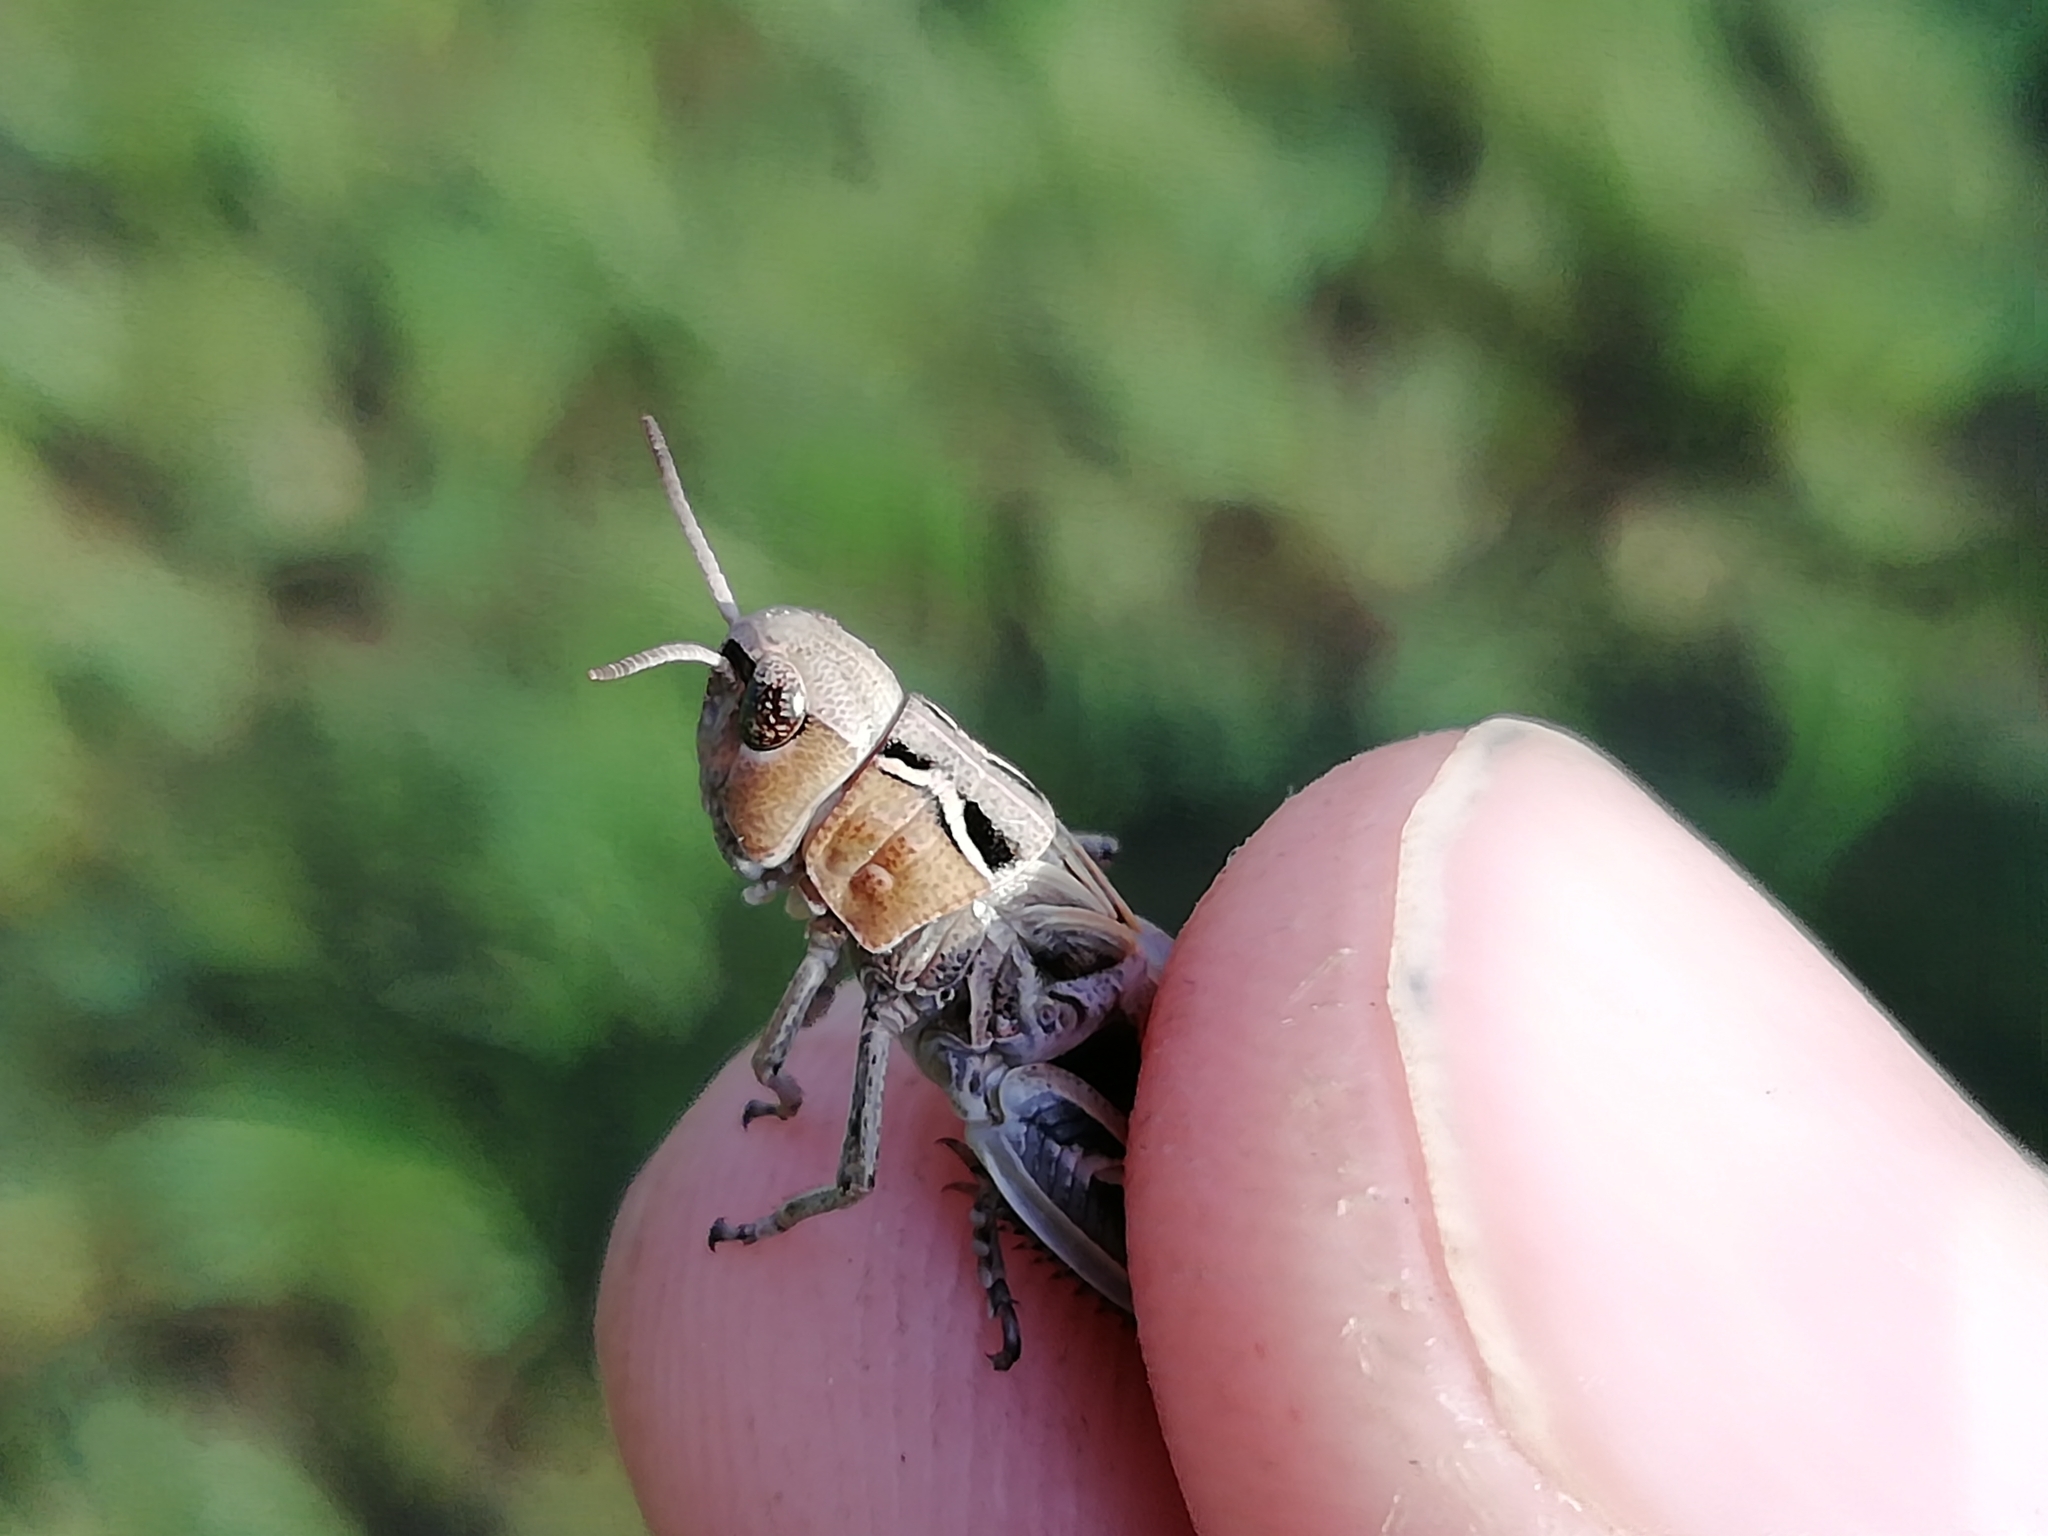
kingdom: Animalia
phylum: Arthropoda
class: Insecta
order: Orthoptera
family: Acrididae
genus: Arcyptera
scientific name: Arcyptera microptera
